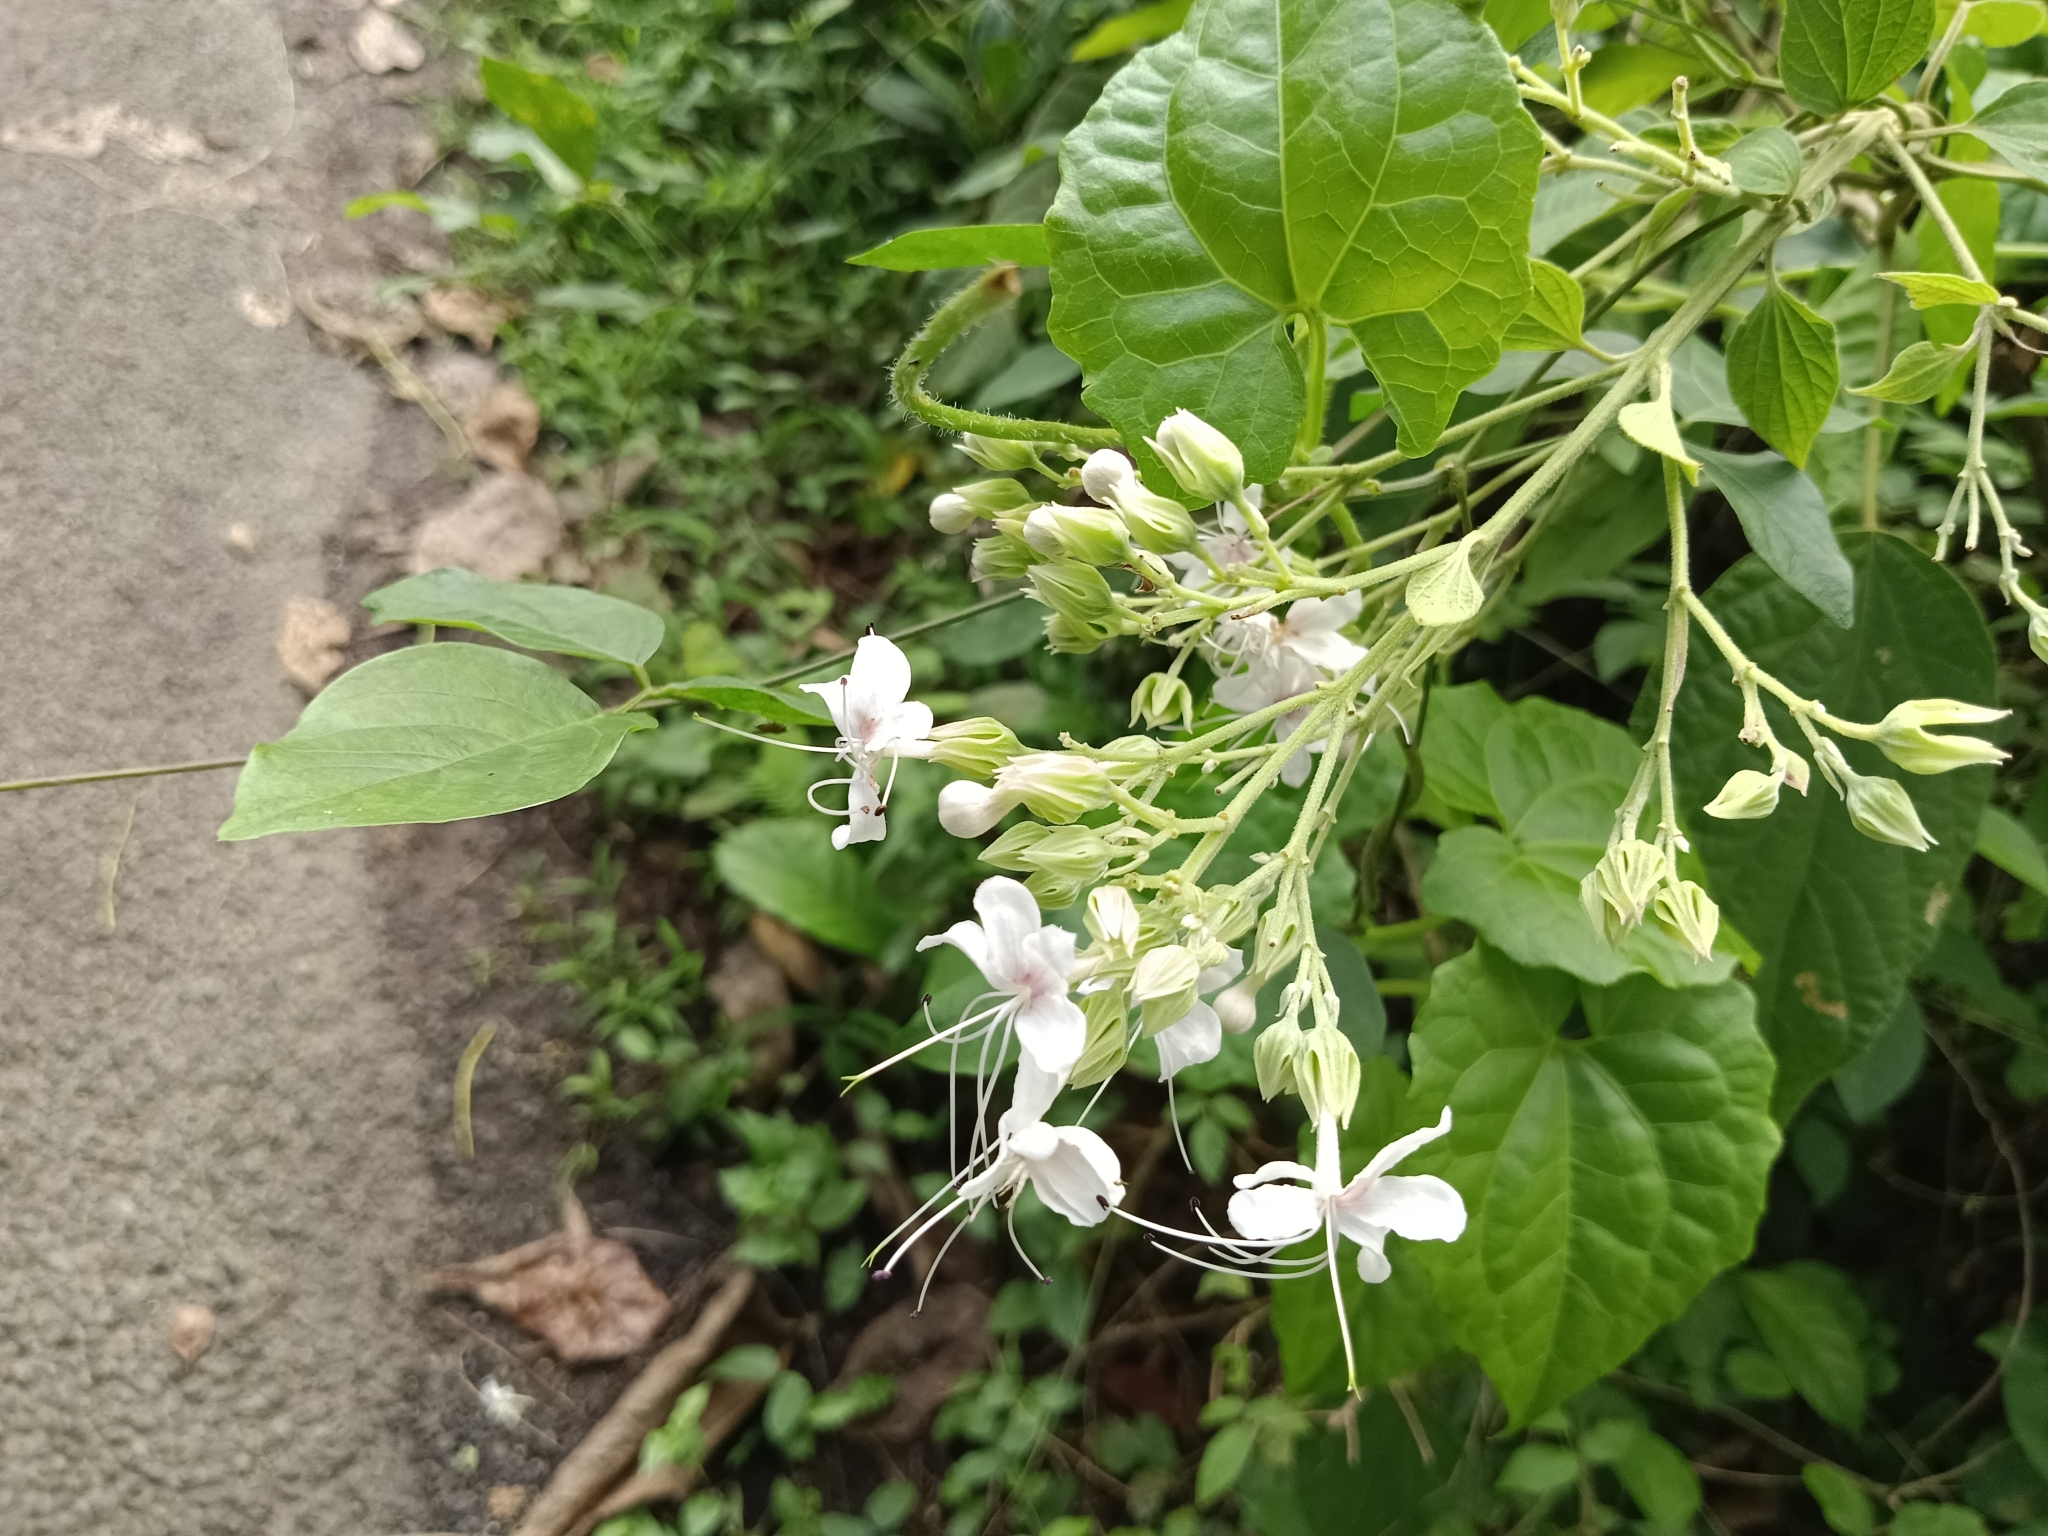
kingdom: Plantae
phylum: Tracheophyta
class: Magnoliopsida
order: Lamiales
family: Lamiaceae
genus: Clerodendrum
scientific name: Clerodendrum infortunatum
